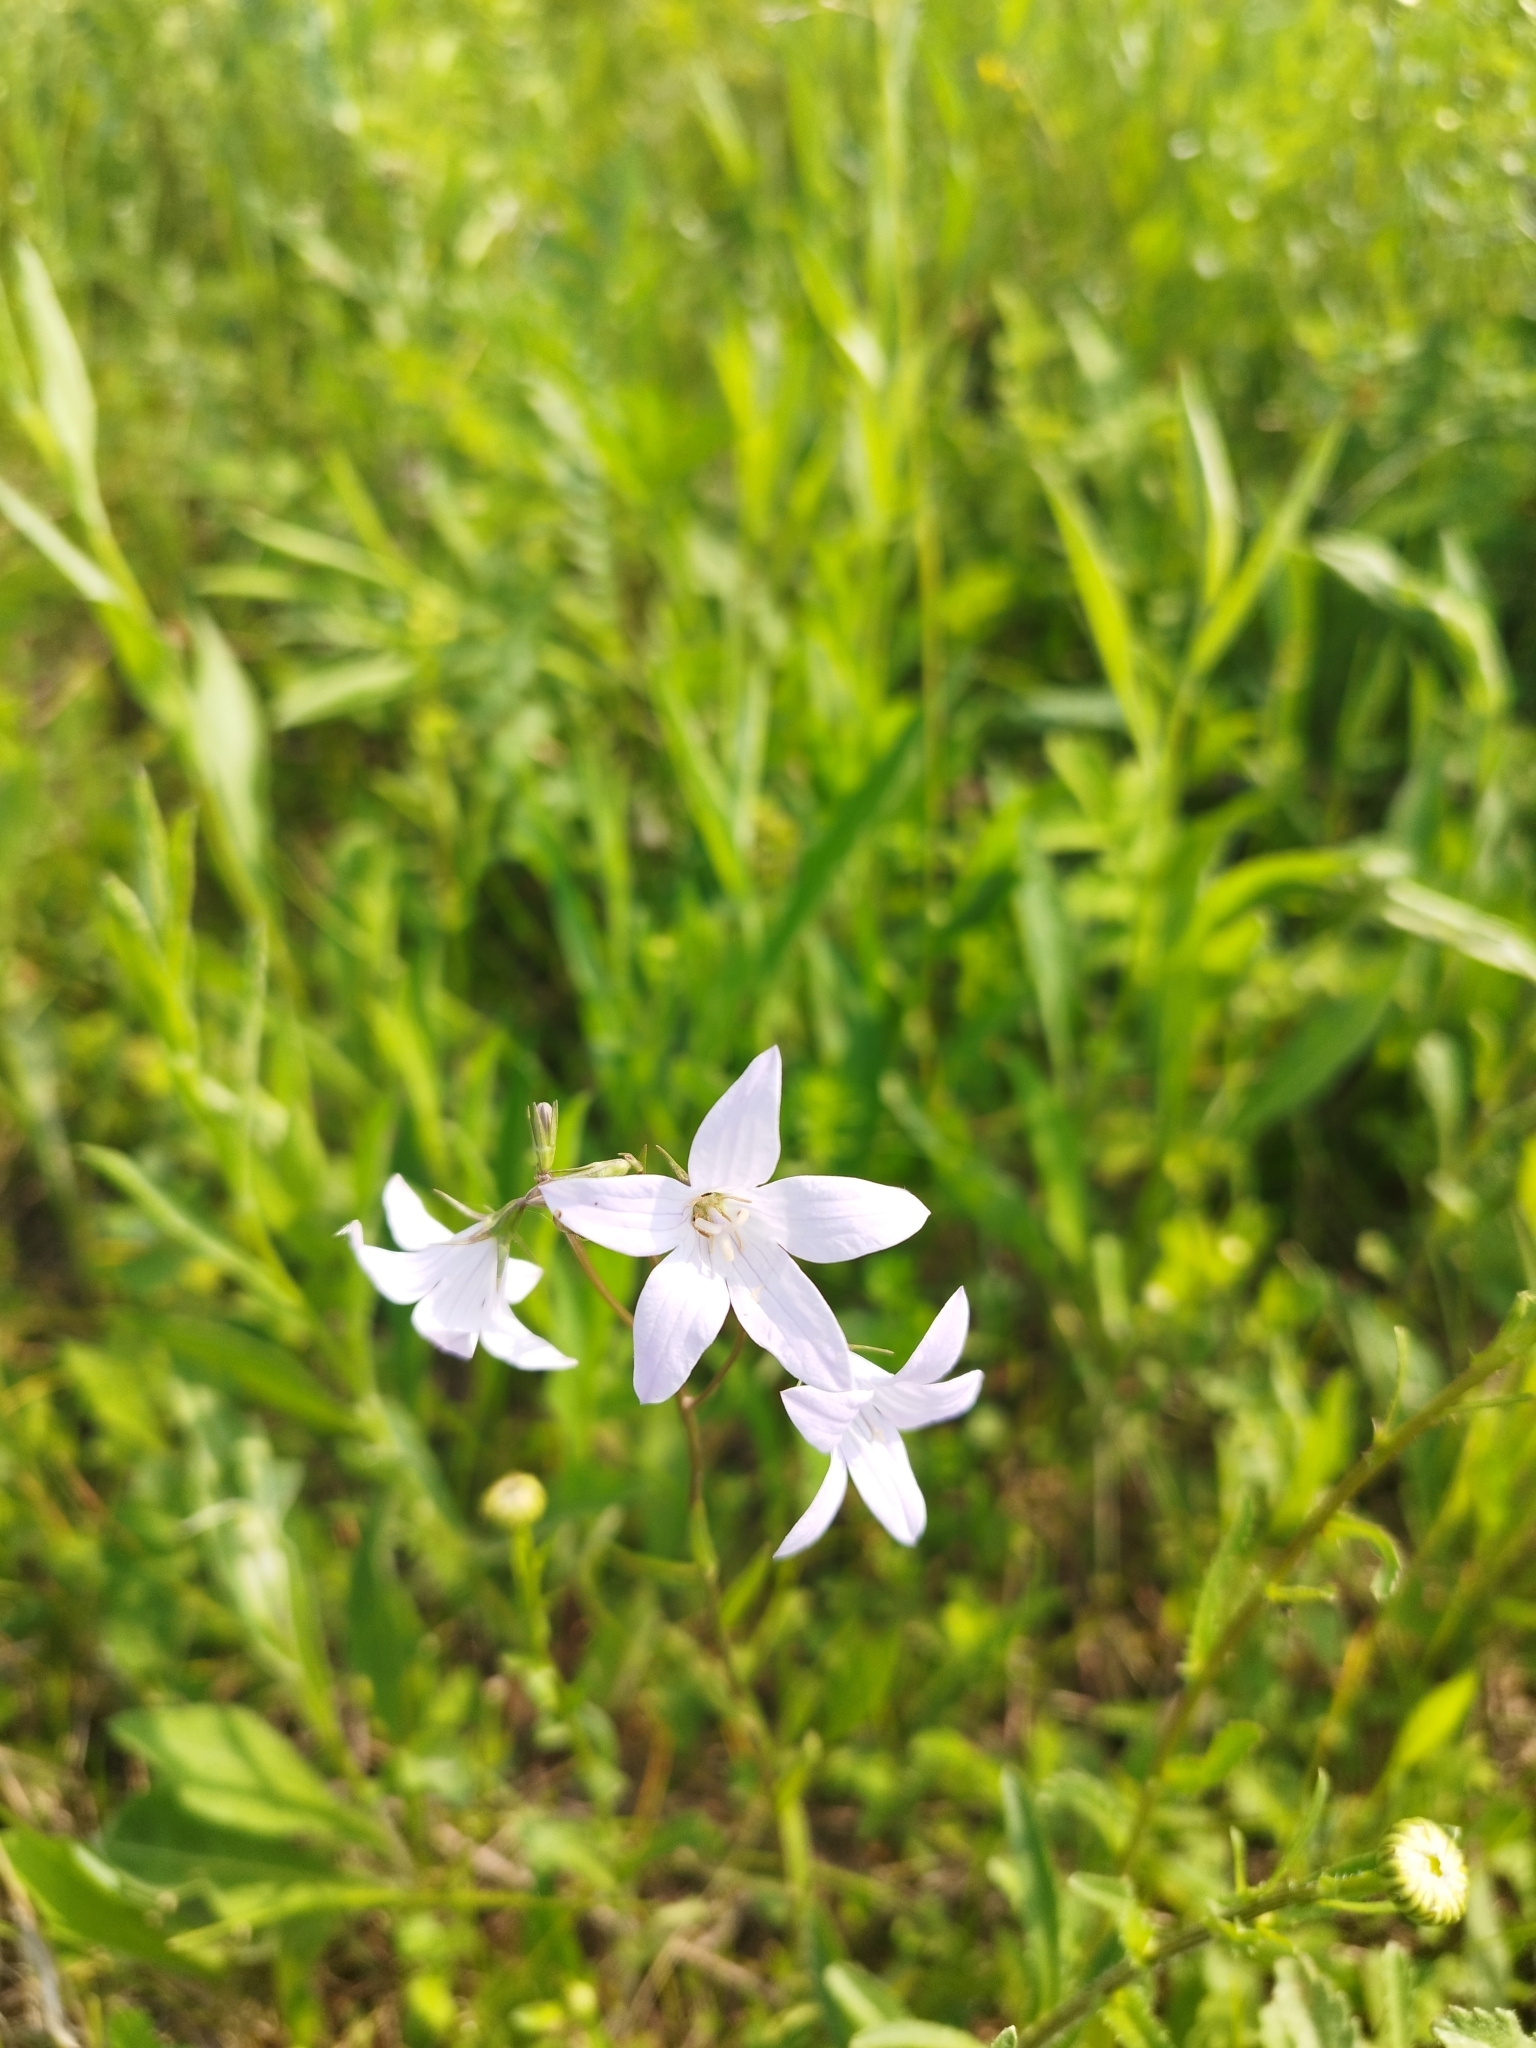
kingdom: Plantae
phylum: Tracheophyta
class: Magnoliopsida
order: Asterales
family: Campanulaceae
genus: Campanula
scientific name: Campanula patula
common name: Spreading bellflower
